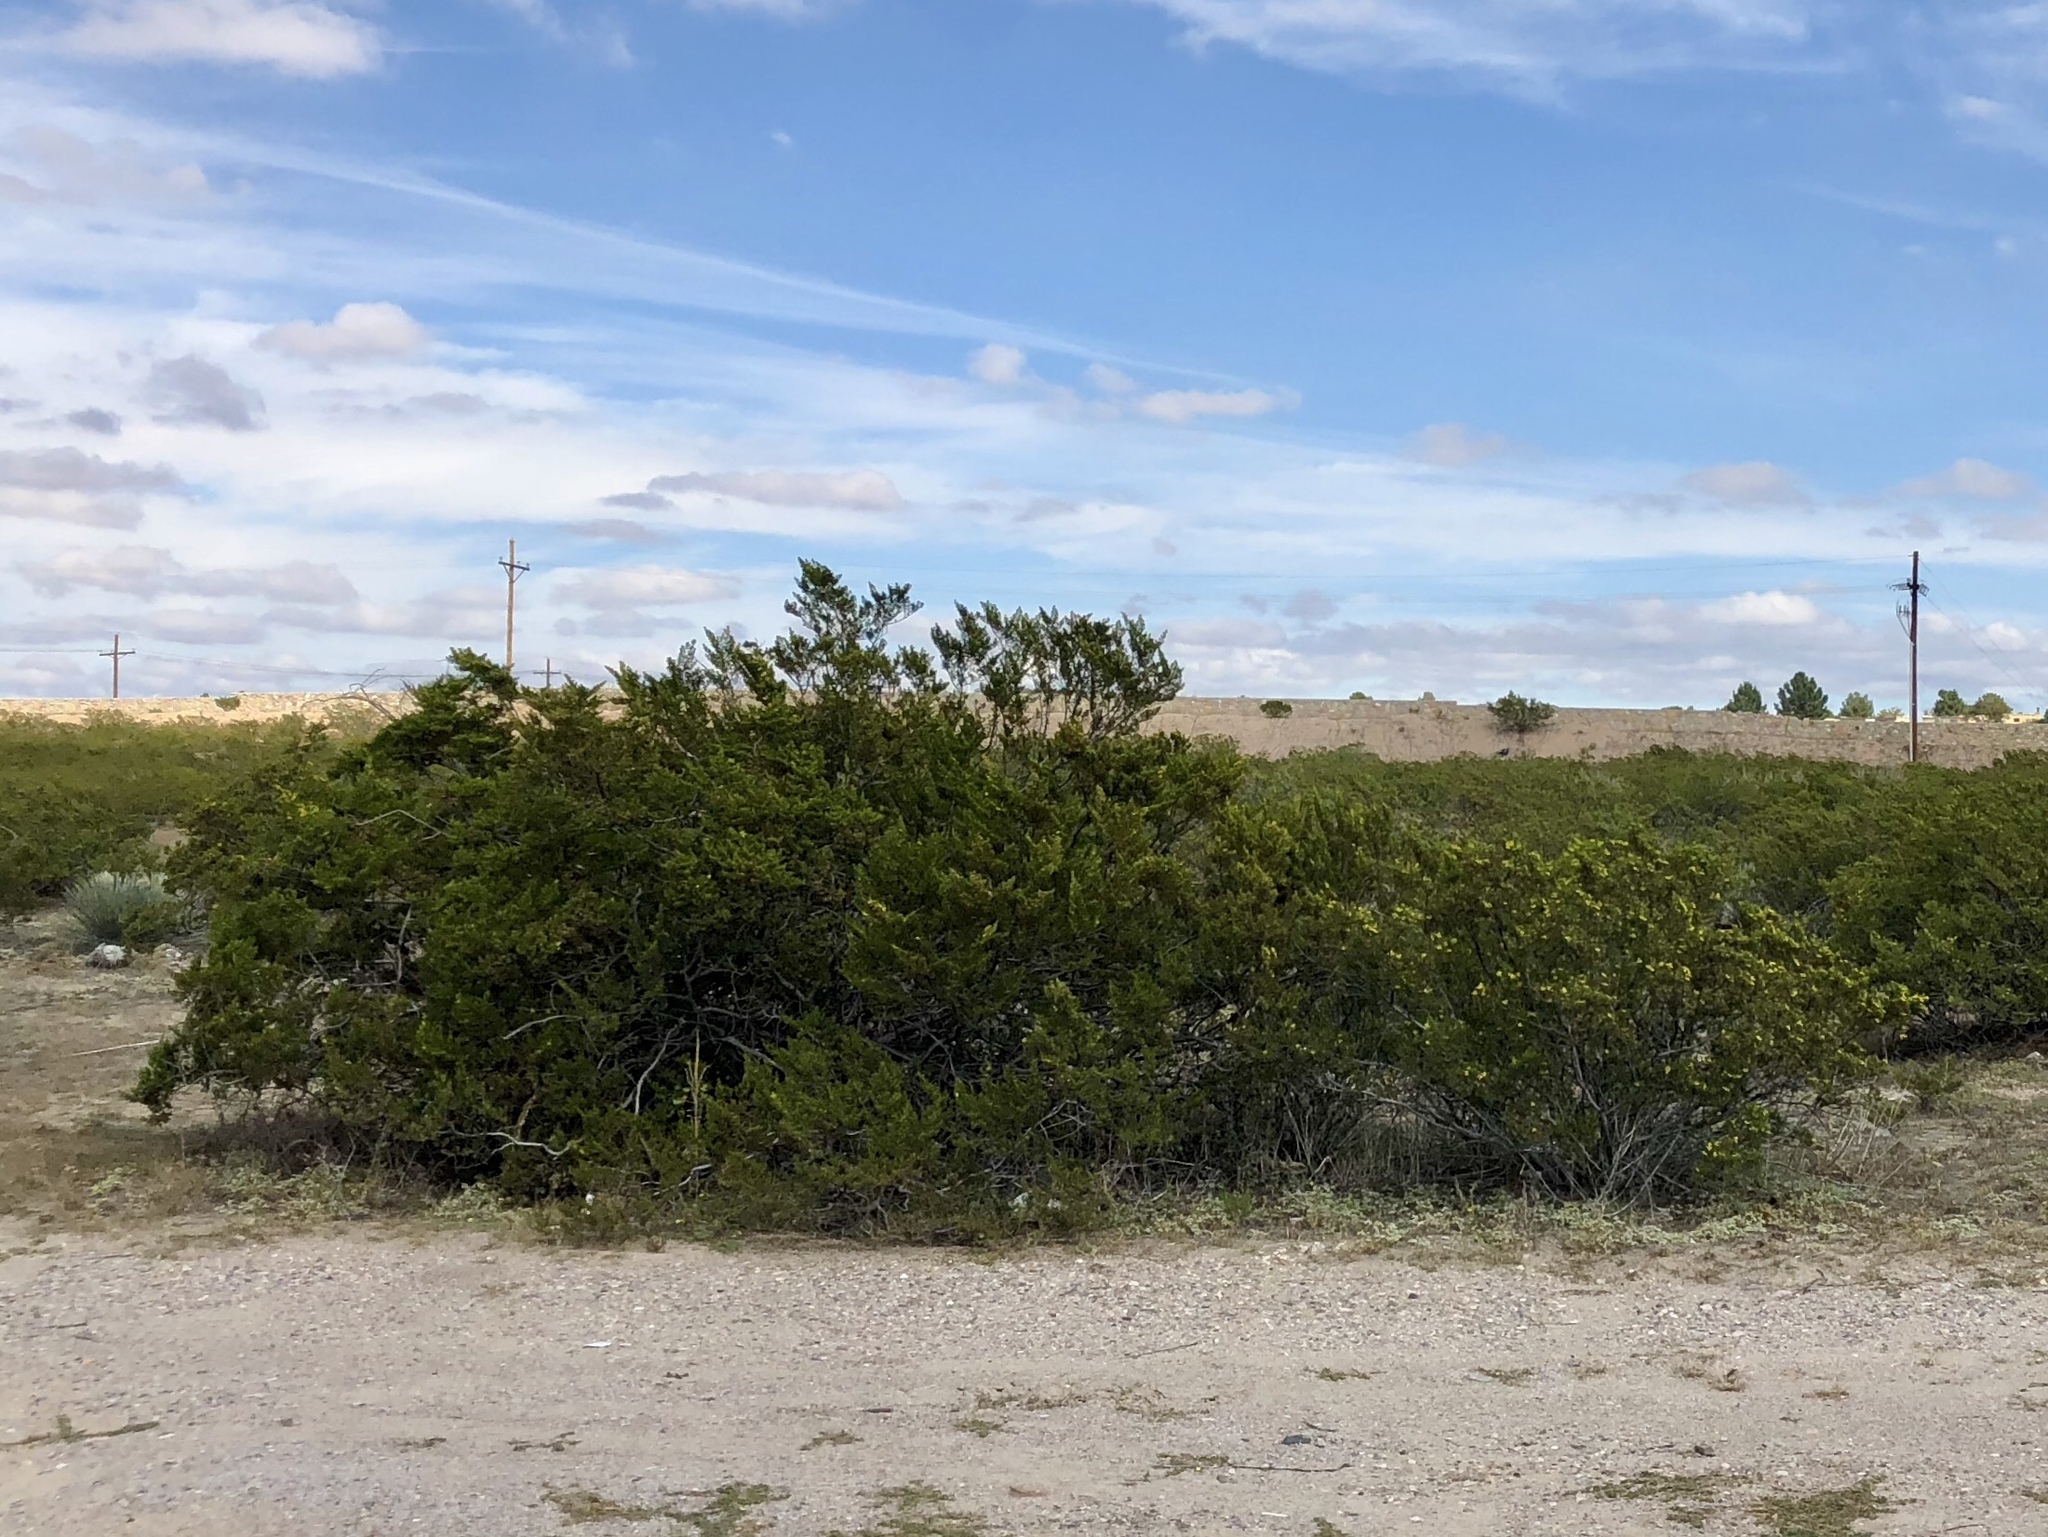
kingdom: Plantae
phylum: Tracheophyta
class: Magnoliopsida
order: Zygophyllales
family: Zygophyllaceae
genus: Larrea
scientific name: Larrea tridentata
